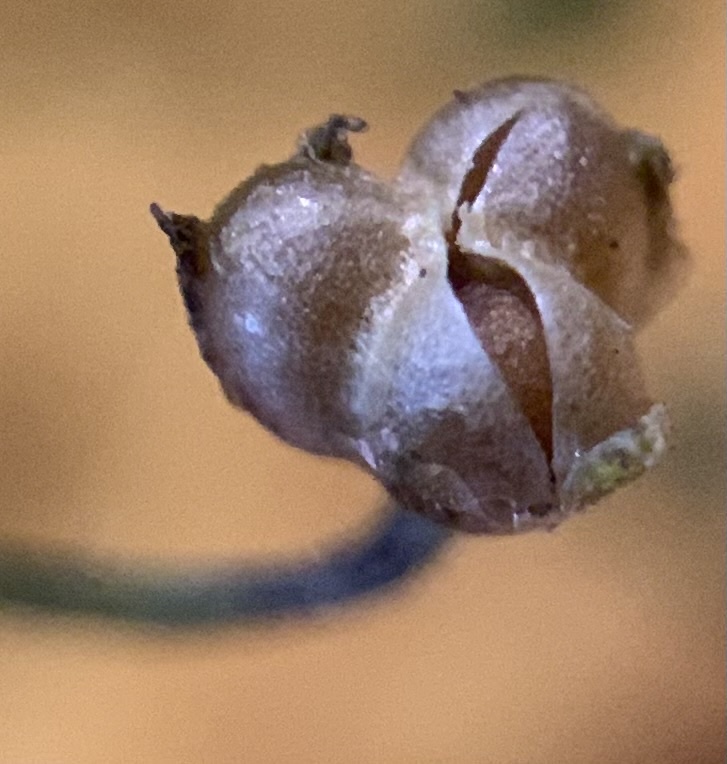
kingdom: Plantae
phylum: Tracheophyta
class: Magnoliopsida
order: Ericales
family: Polemoniaceae
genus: Lathrocasis
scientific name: Lathrocasis tenerrima
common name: Delicate gilia
